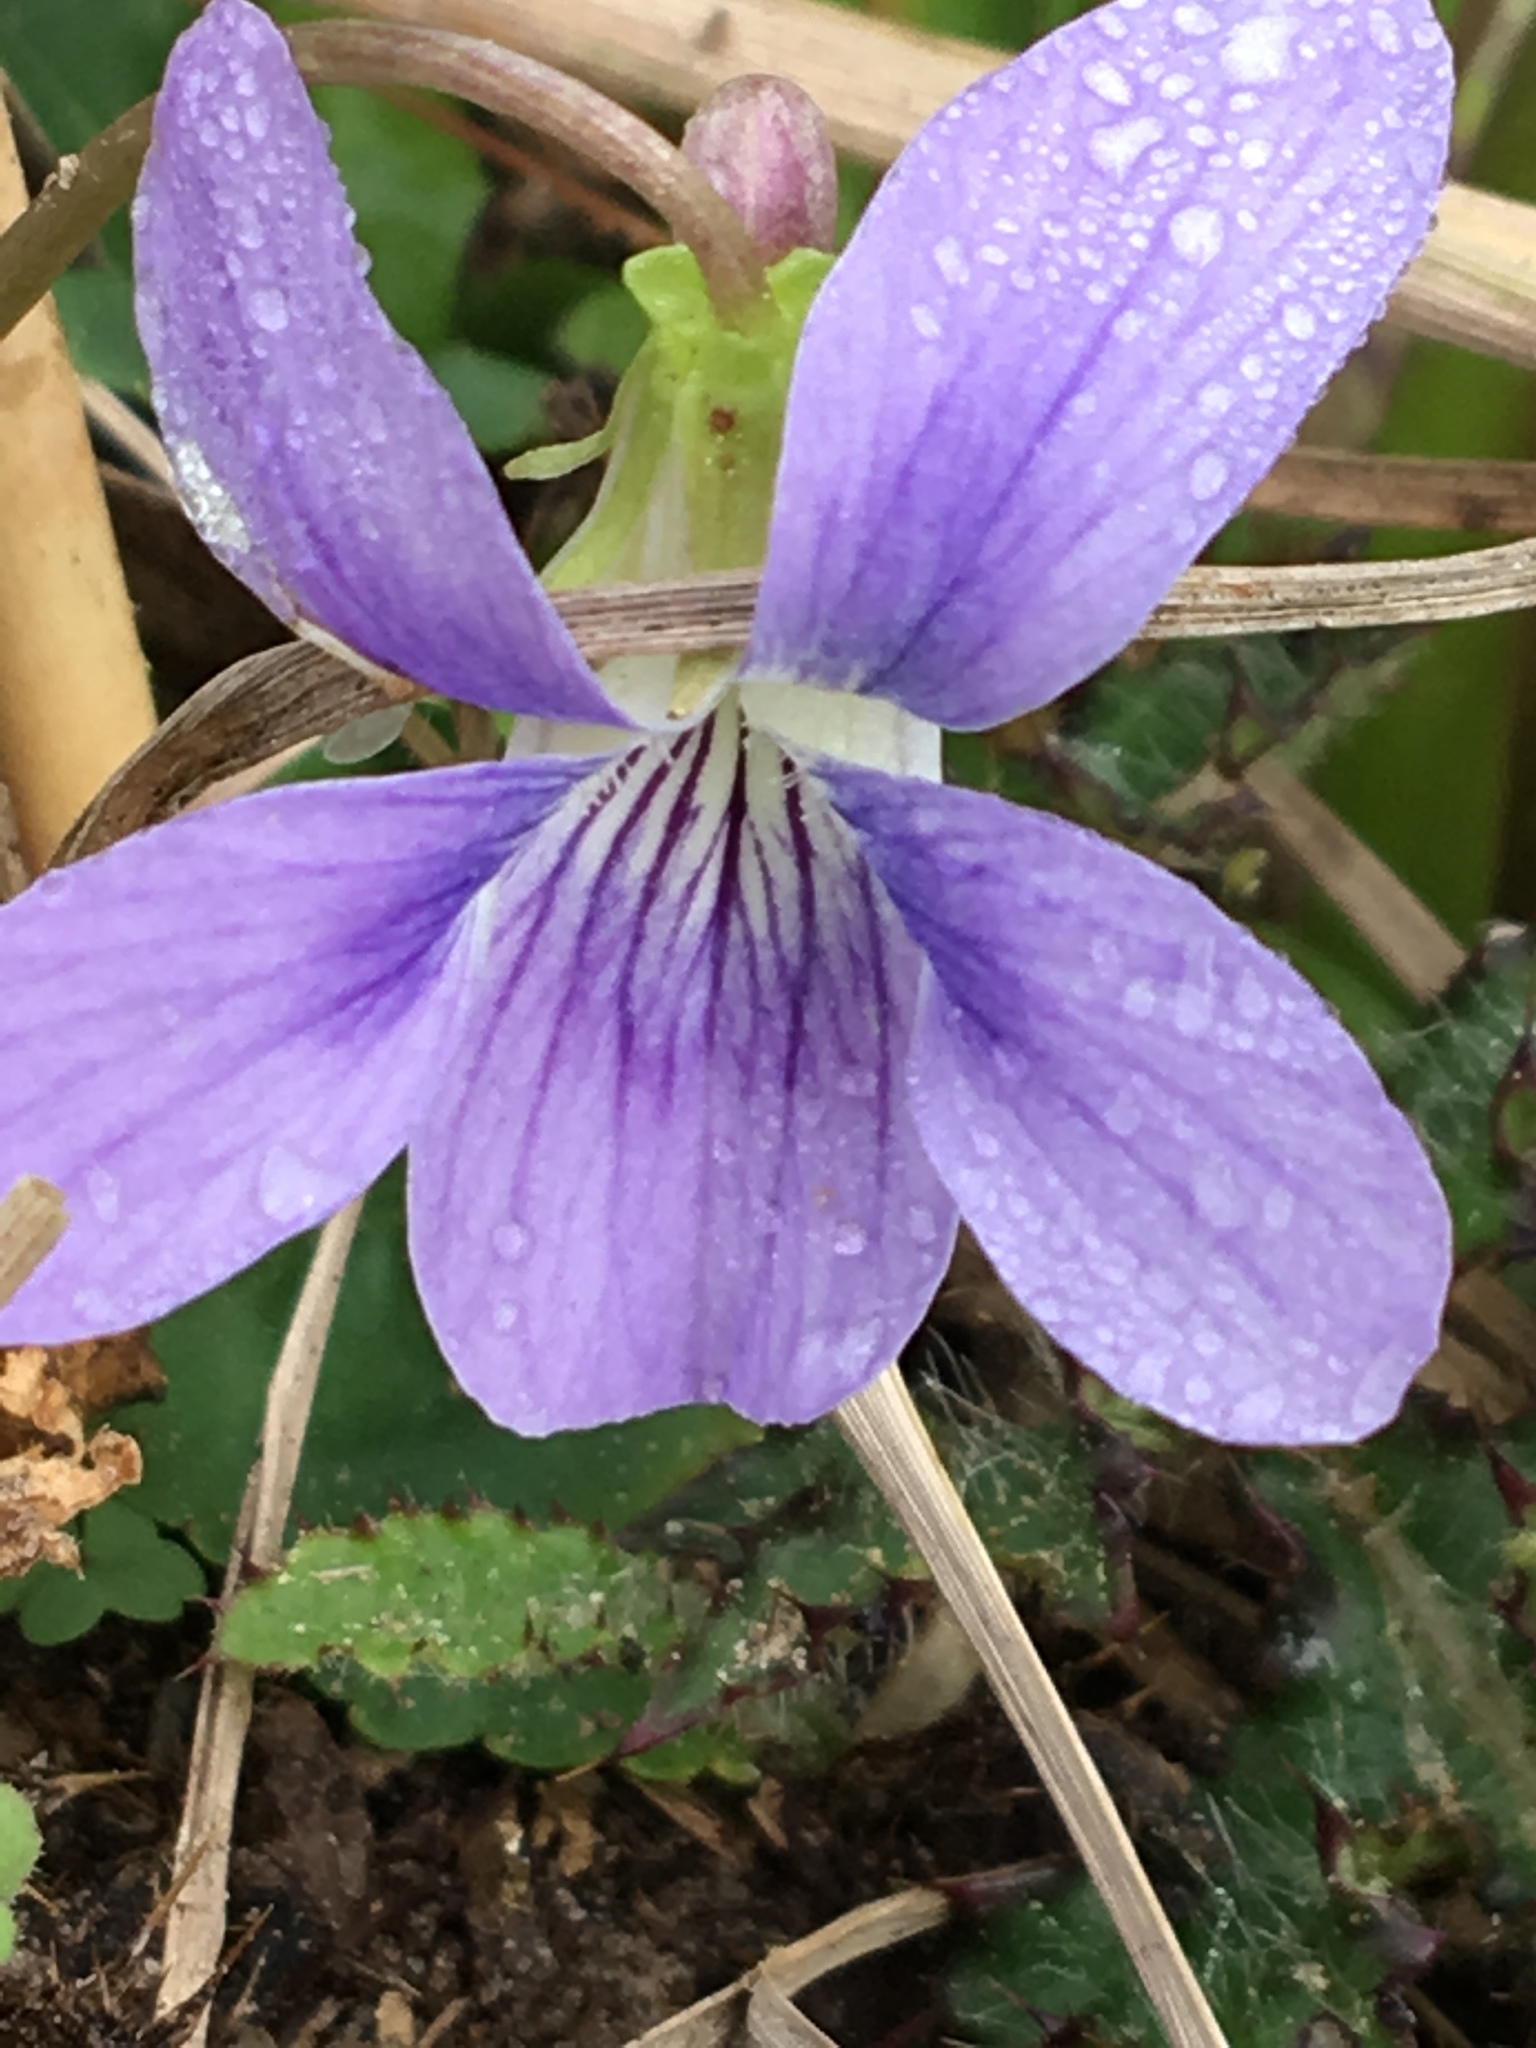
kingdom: Plantae
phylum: Tracheophyta
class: Magnoliopsida
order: Malpighiales
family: Violaceae
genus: Viola
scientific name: Viola
